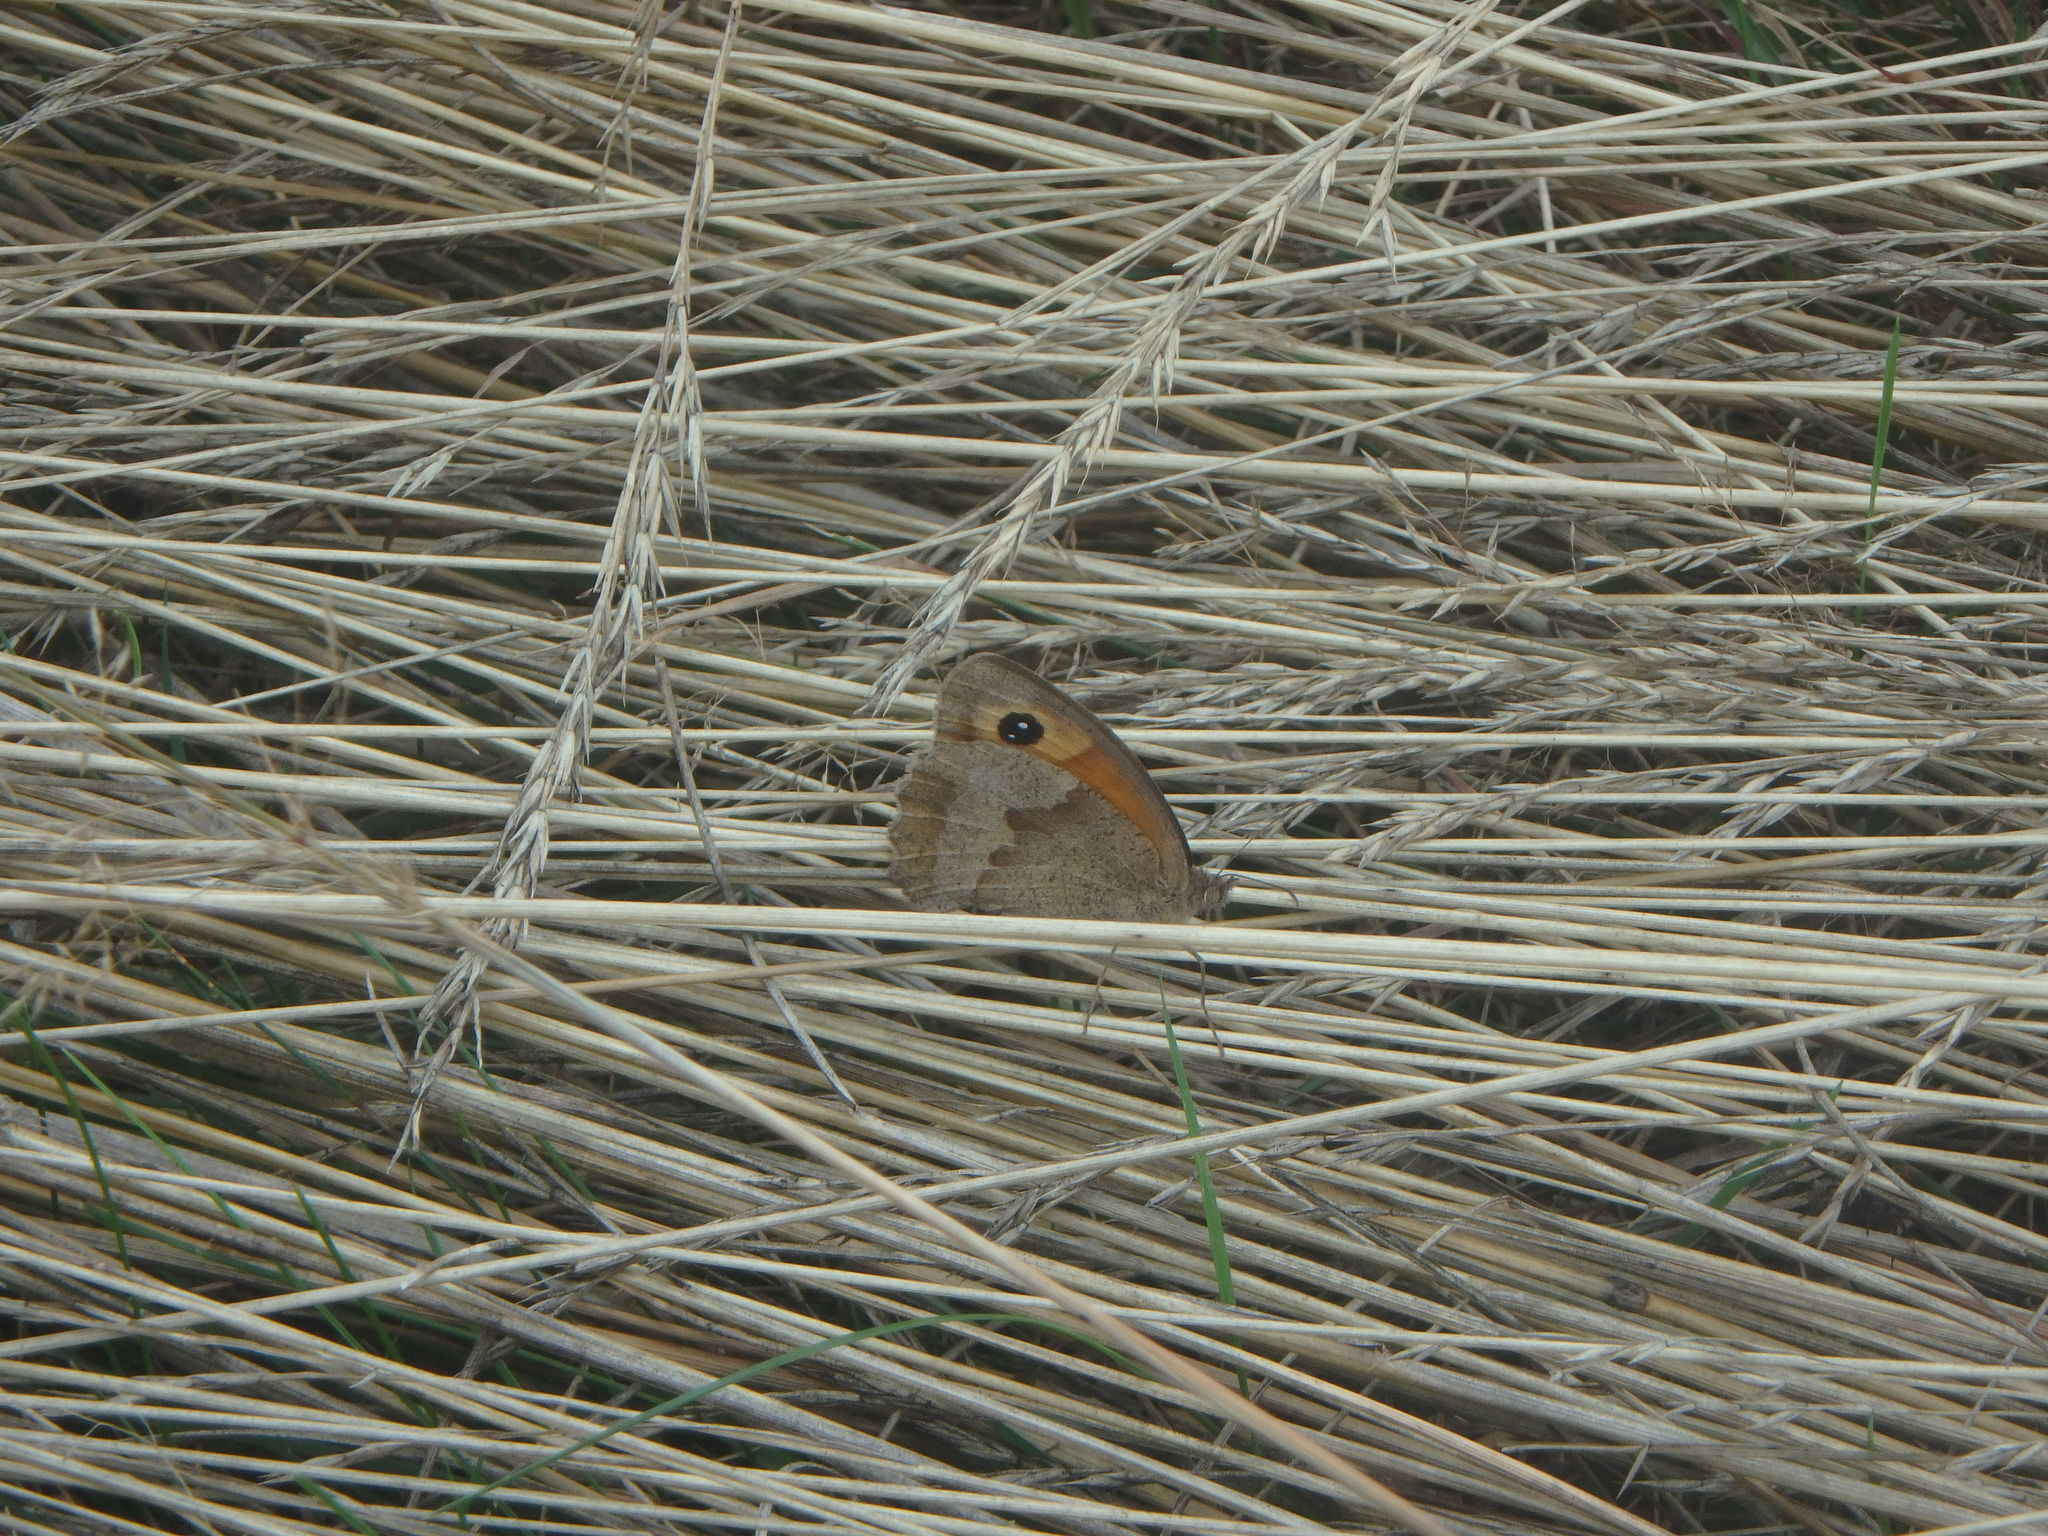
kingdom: Animalia
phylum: Arthropoda
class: Insecta
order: Lepidoptera
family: Nymphalidae
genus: Maniola
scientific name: Maniola jurtina
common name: Meadow brown
